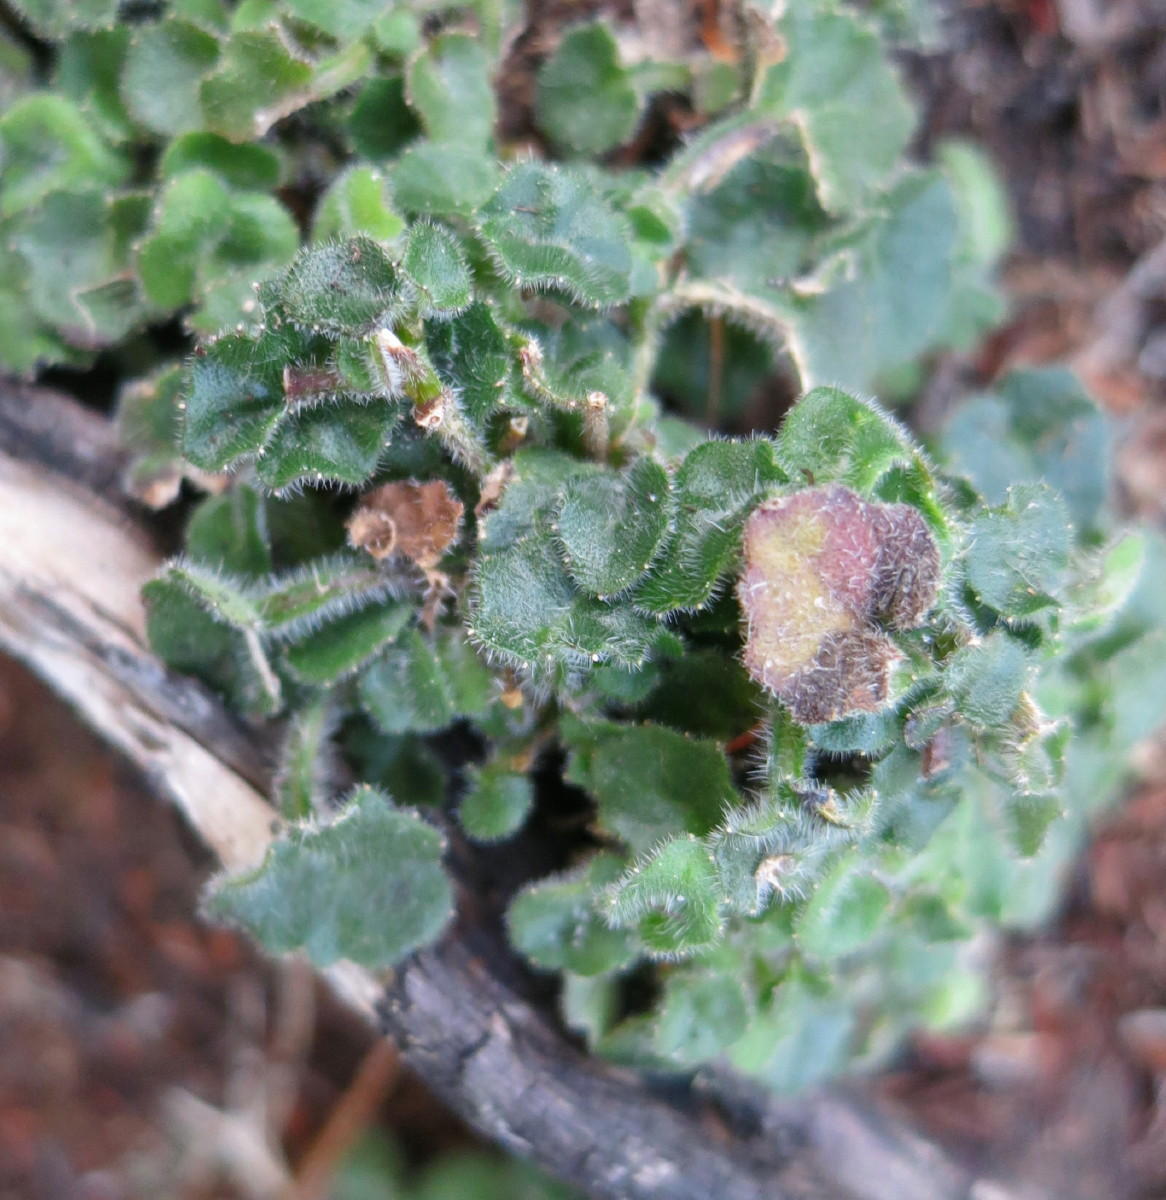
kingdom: Plantae
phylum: Tracheophyta
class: Magnoliopsida
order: Asterales
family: Campanulaceae
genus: Lobelia
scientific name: Lobelia ardisiandroides
